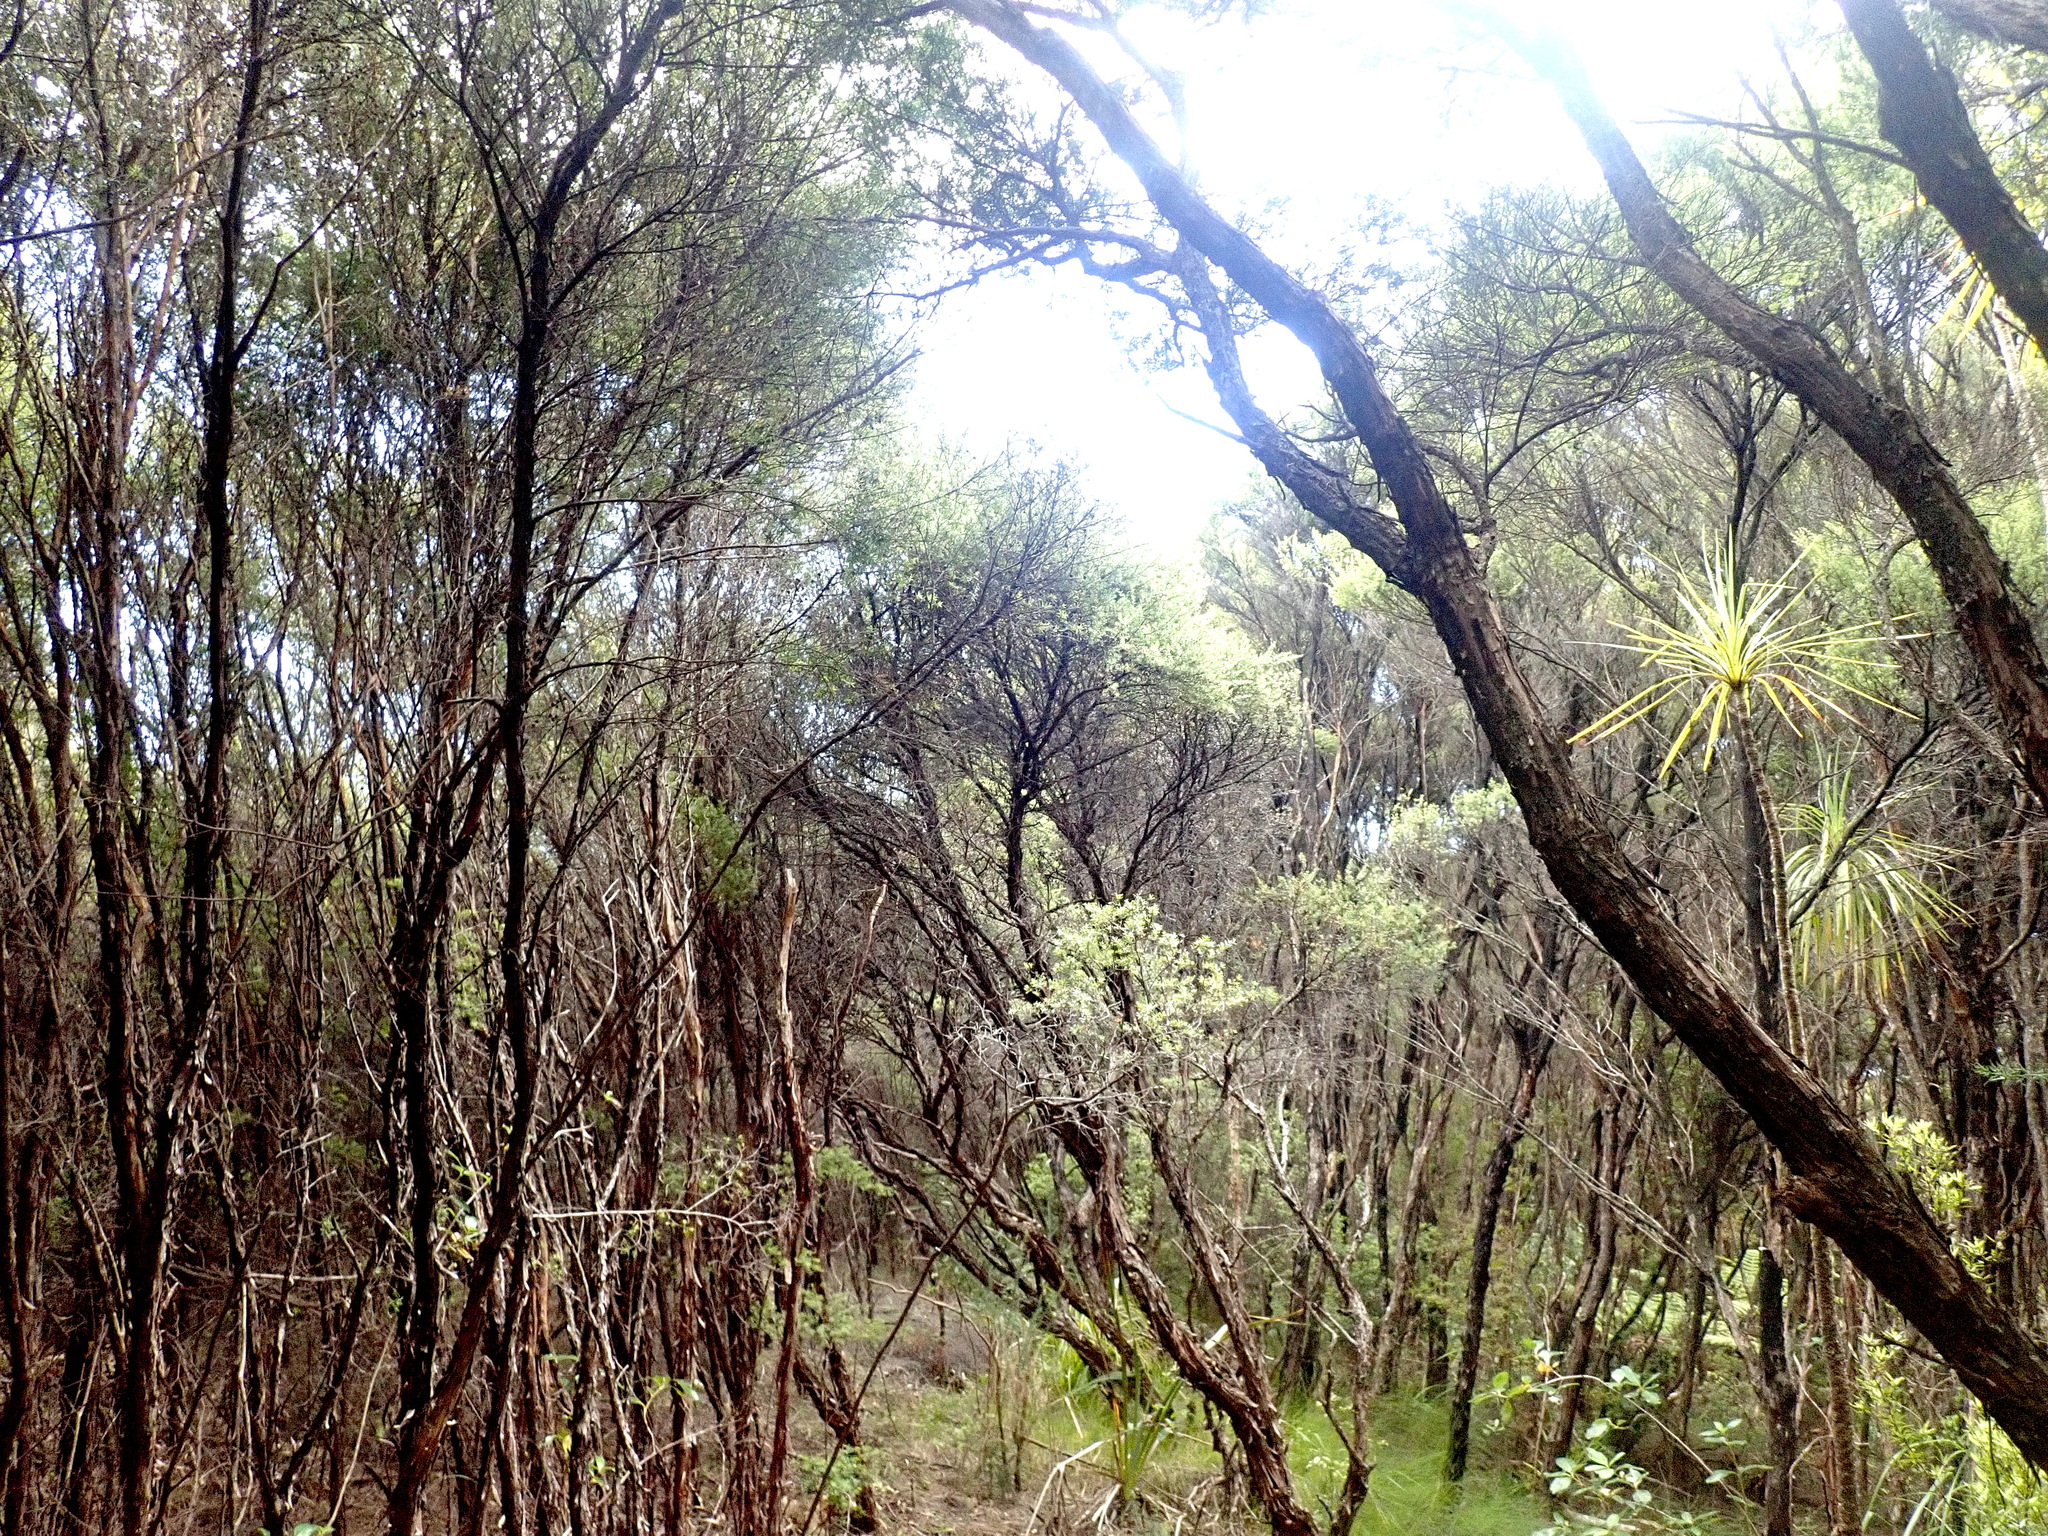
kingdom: Plantae
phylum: Tracheophyta
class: Magnoliopsida
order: Fabales
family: Fabaceae
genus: Ulex
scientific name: Ulex europaeus
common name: Common gorse
